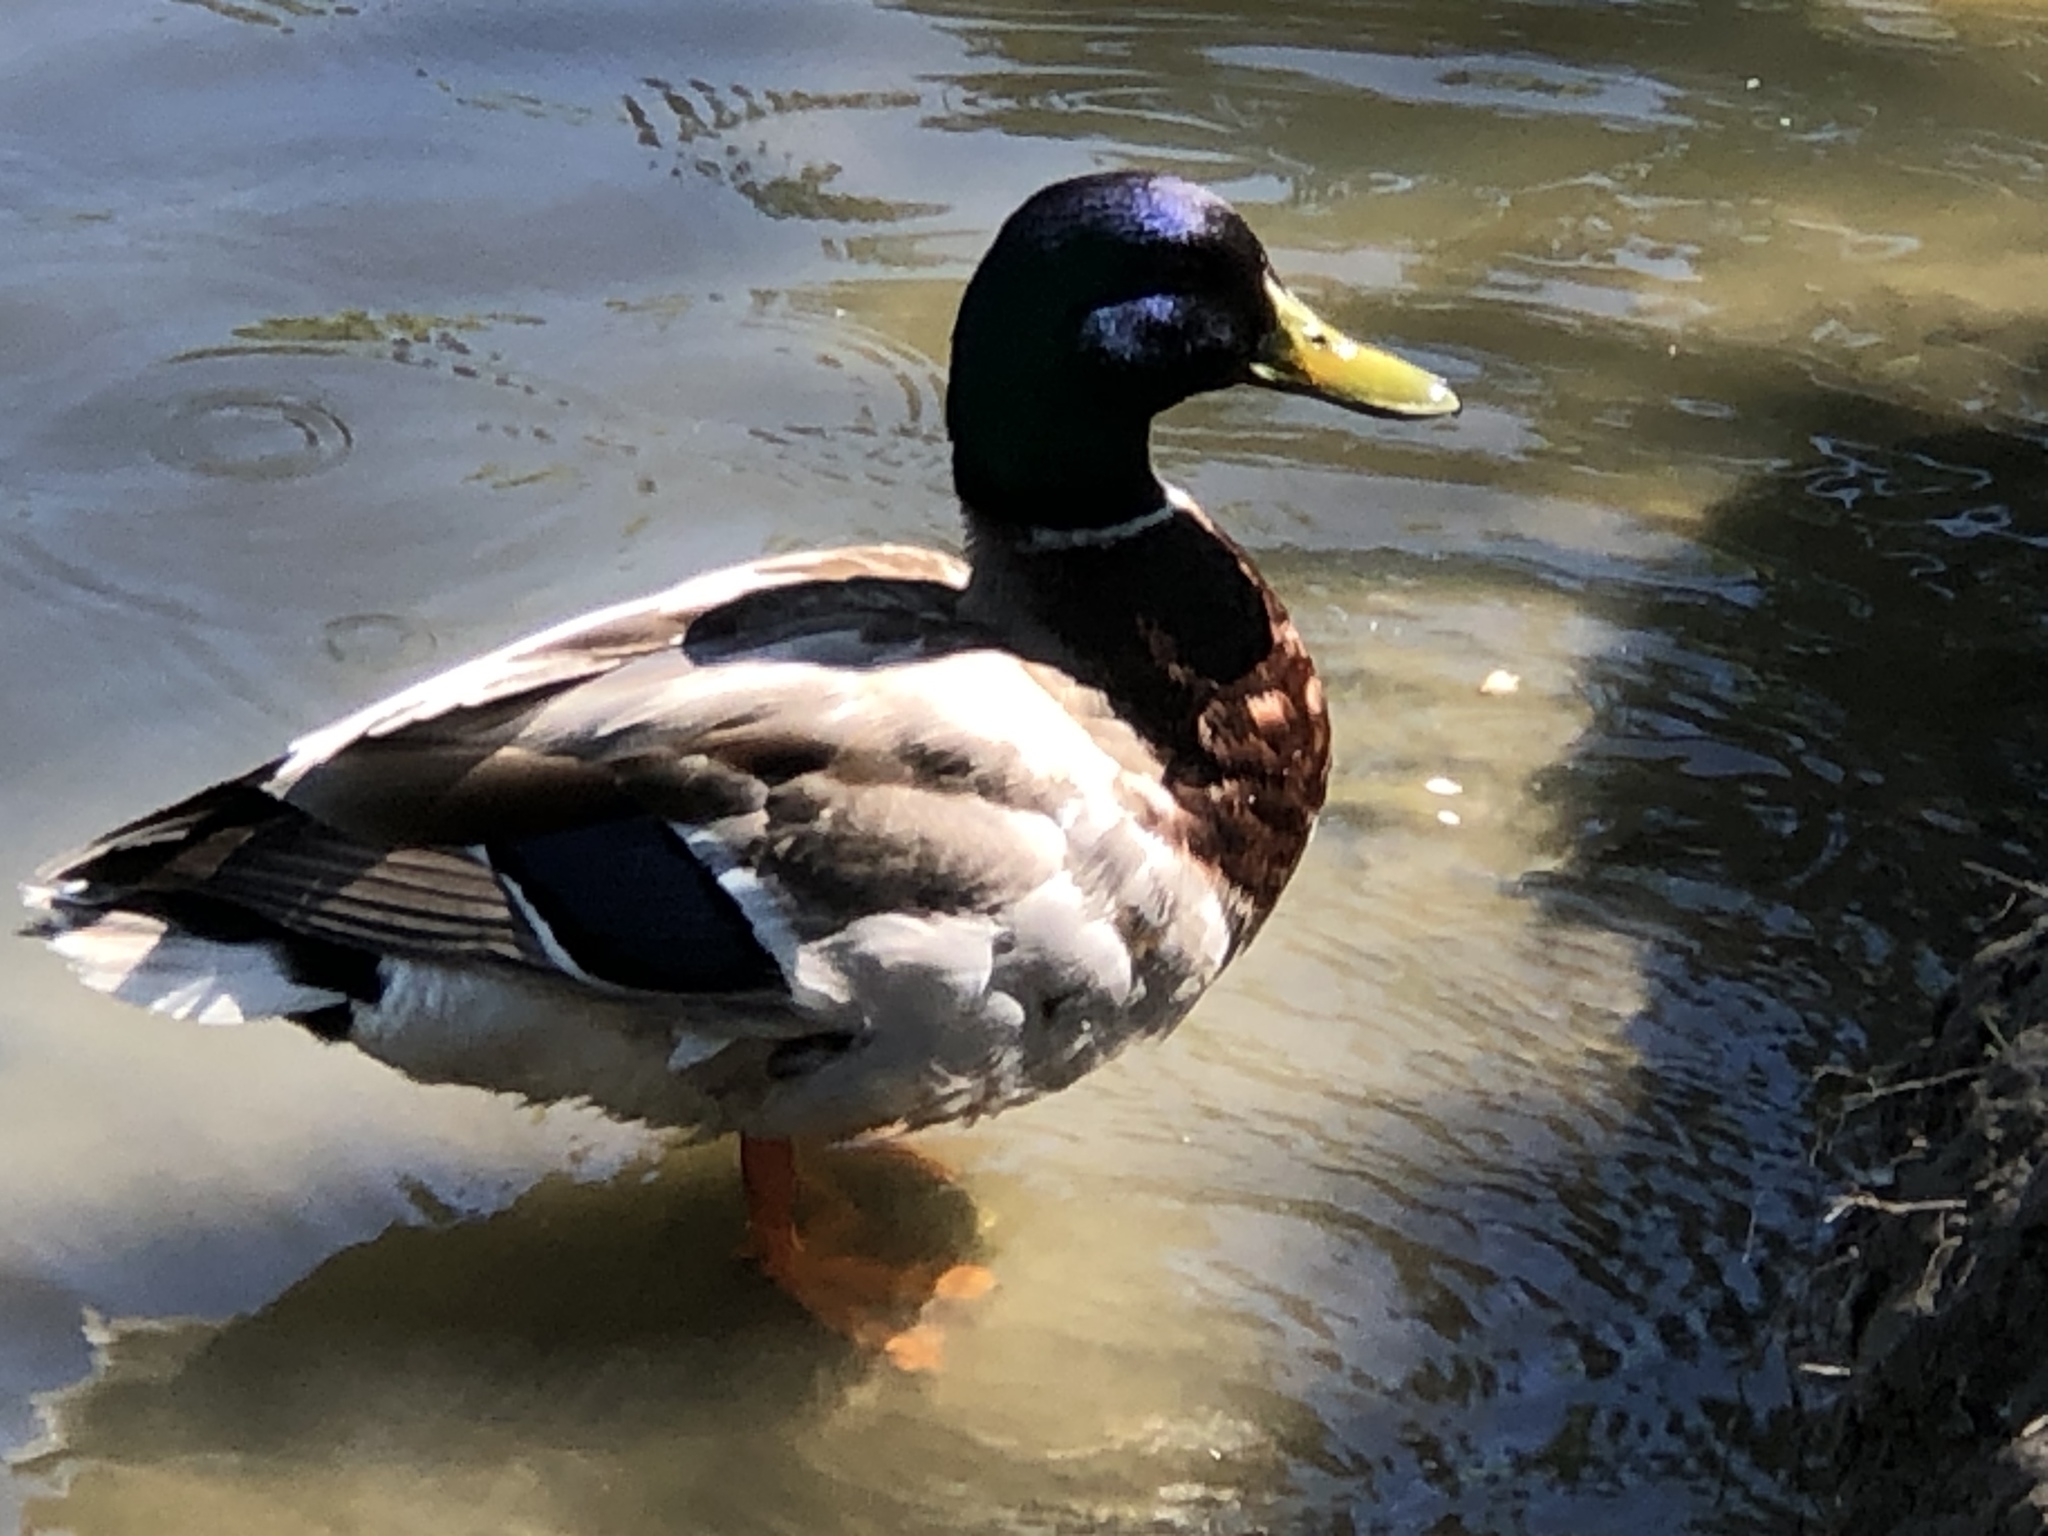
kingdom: Animalia
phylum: Chordata
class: Aves
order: Anseriformes
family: Anatidae
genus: Anas
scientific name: Anas platyrhynchos
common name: Mallard
